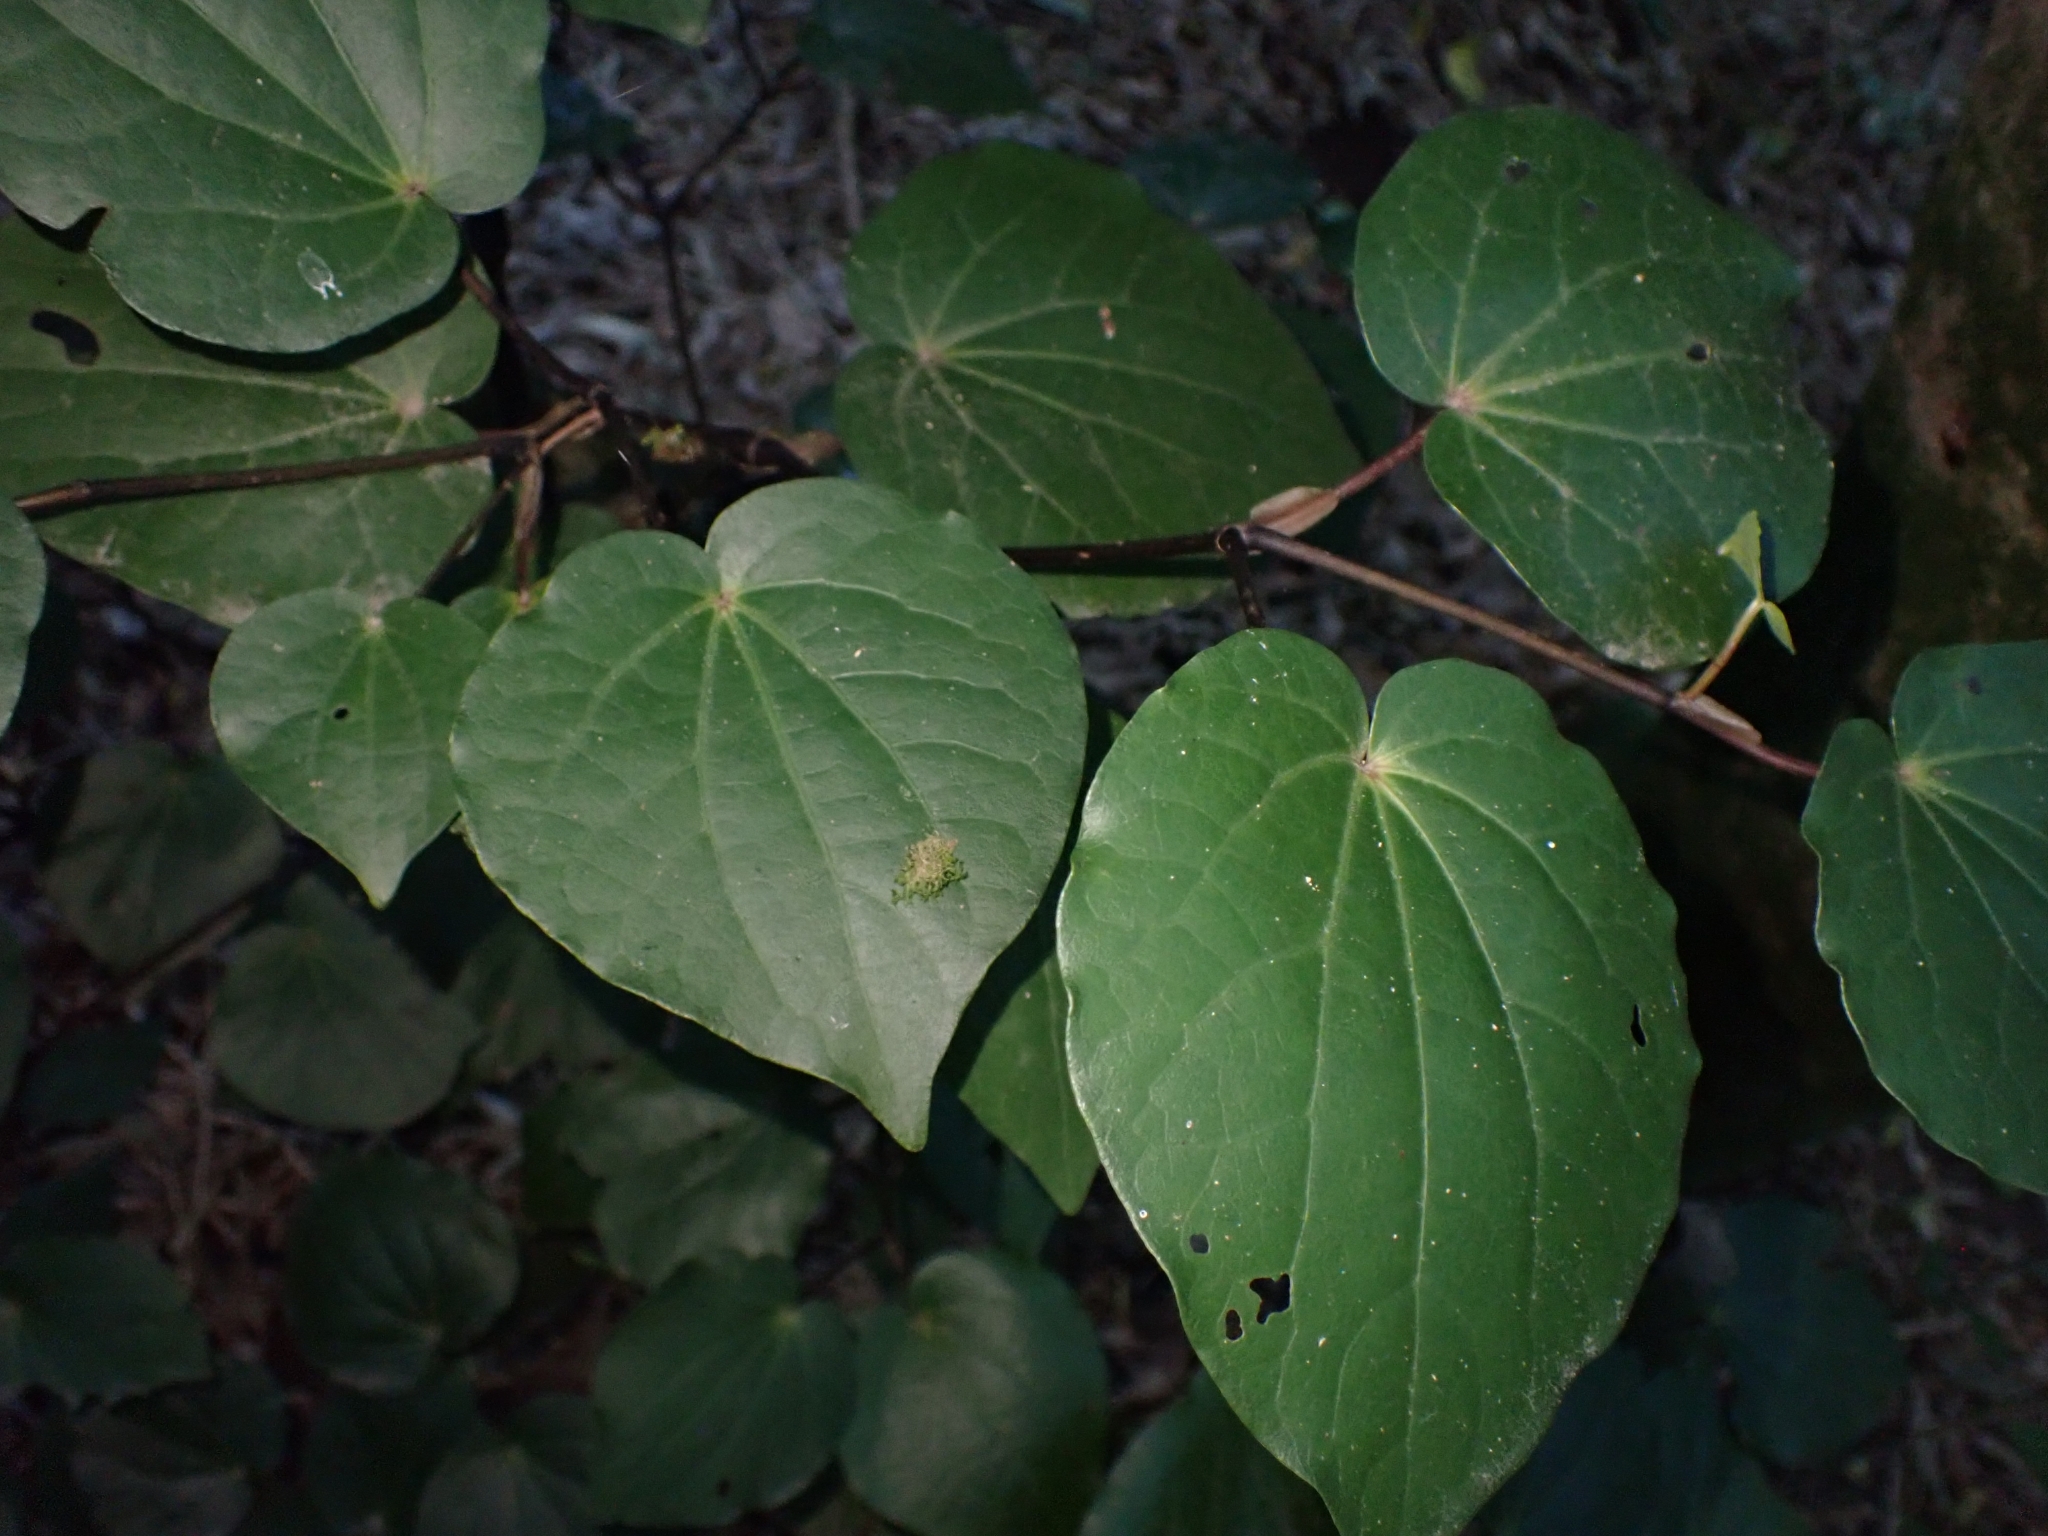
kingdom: Plantae
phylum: Tracheophyta
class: Magnoliopsida
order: Piperales
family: Piperaceae
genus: Macropiper
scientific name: Macropiper excelsum
